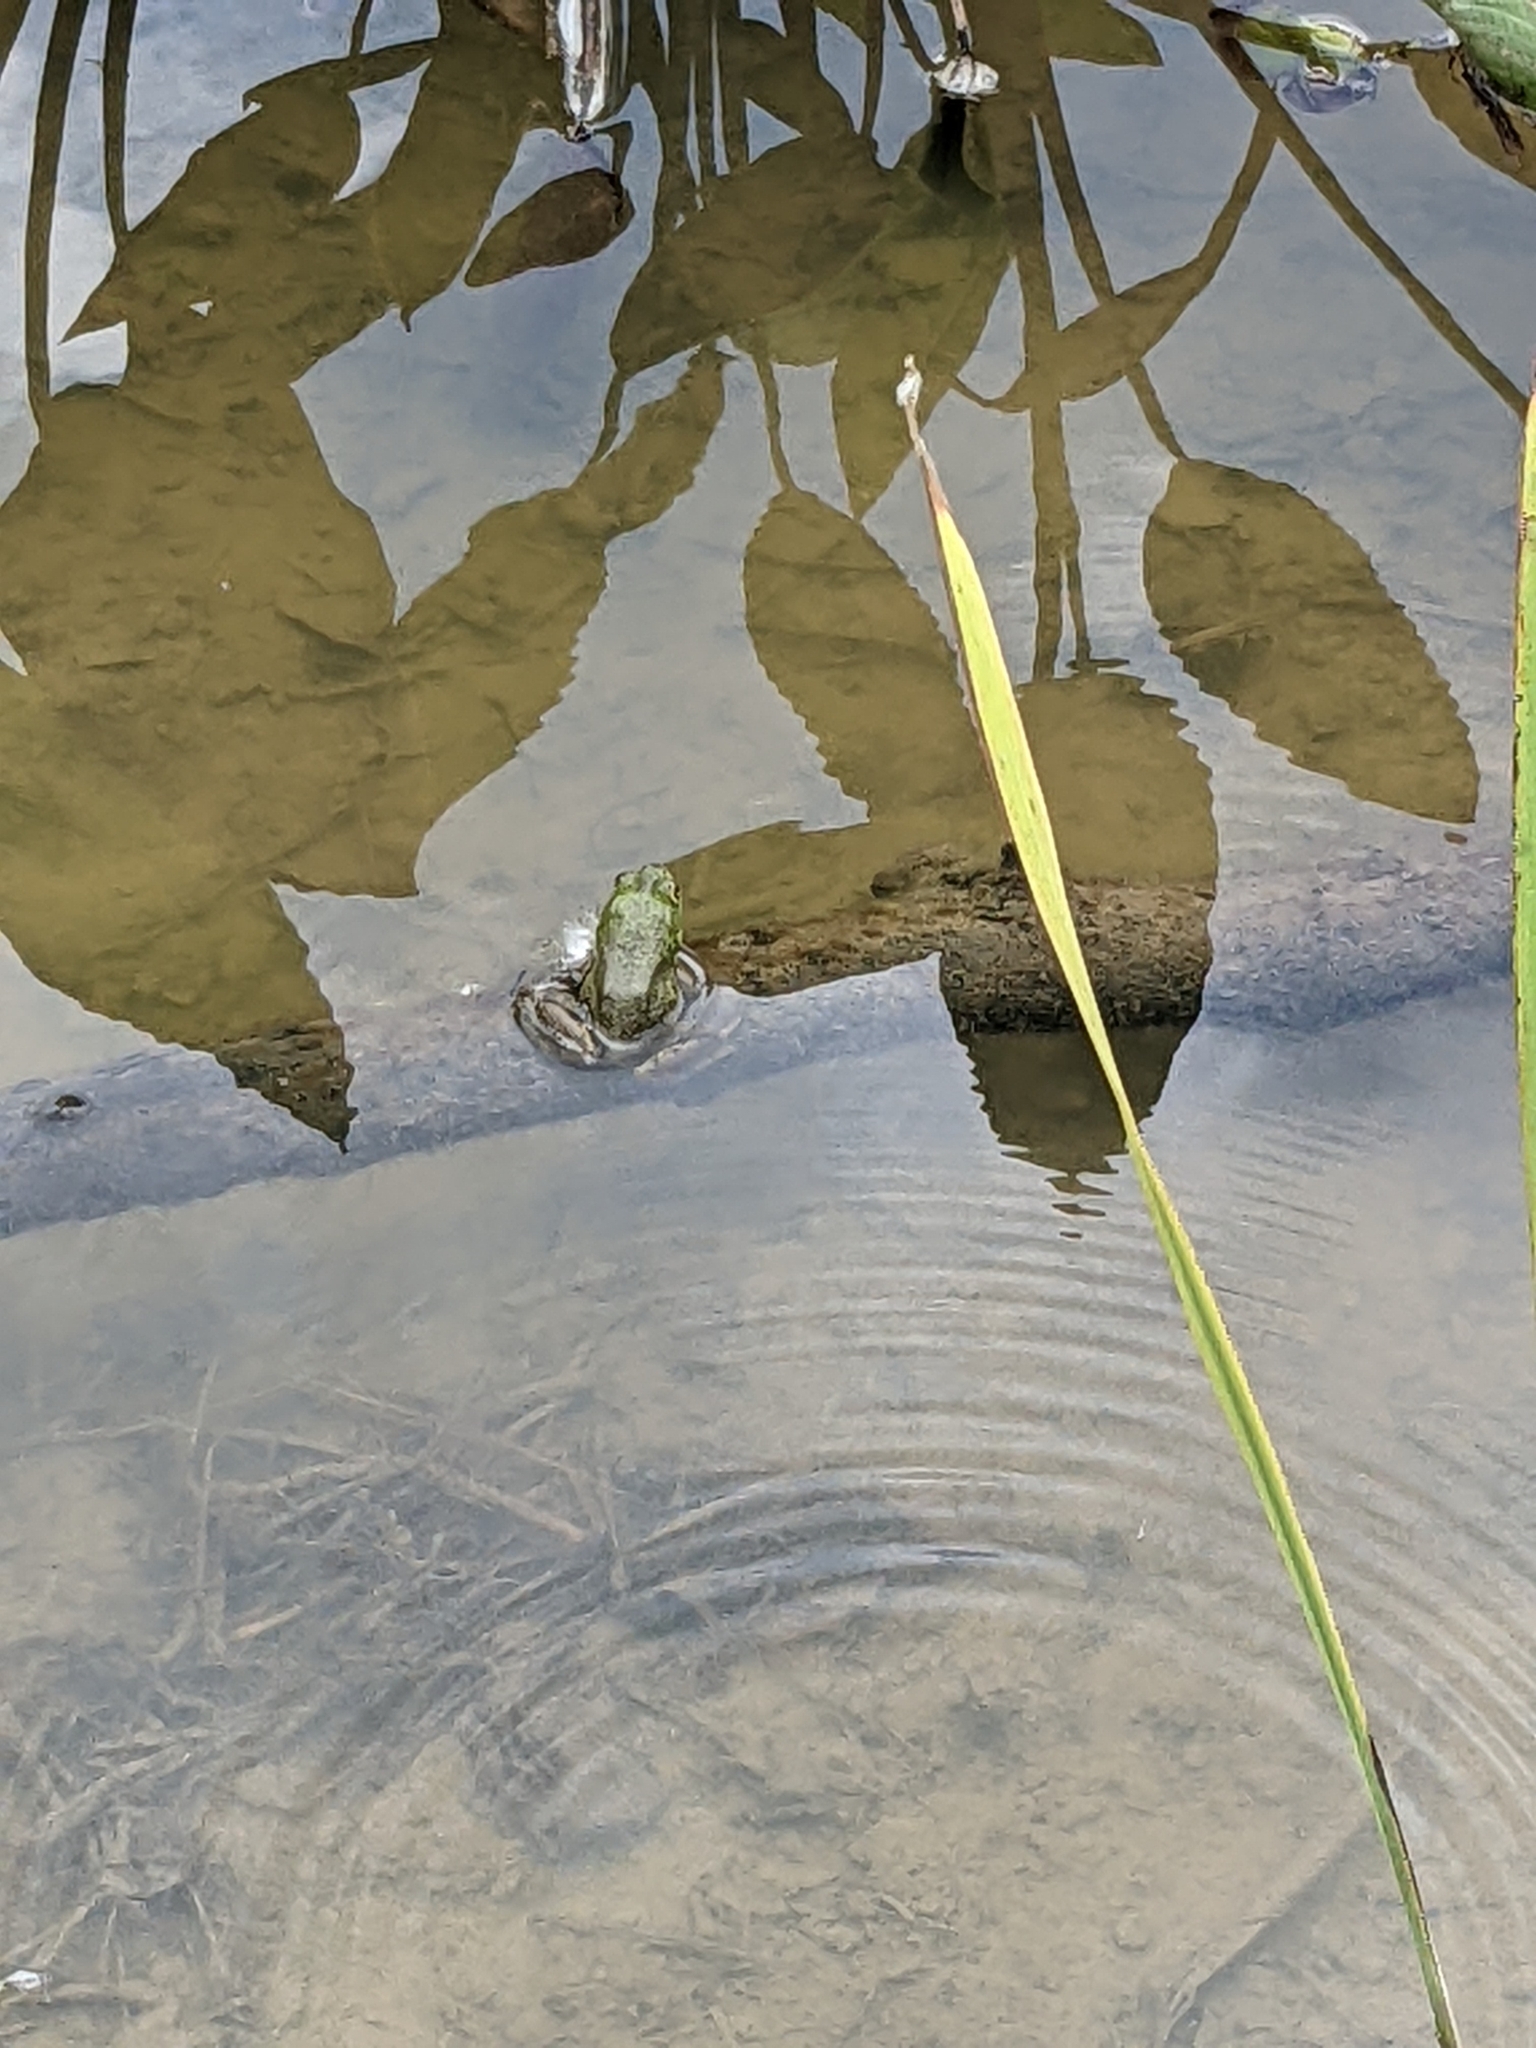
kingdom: Animalia
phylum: Chordata
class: Amphibia
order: Anura
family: Ranidae
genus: Lithobates
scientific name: Lithobates catesbeianus
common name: American bullfrog
